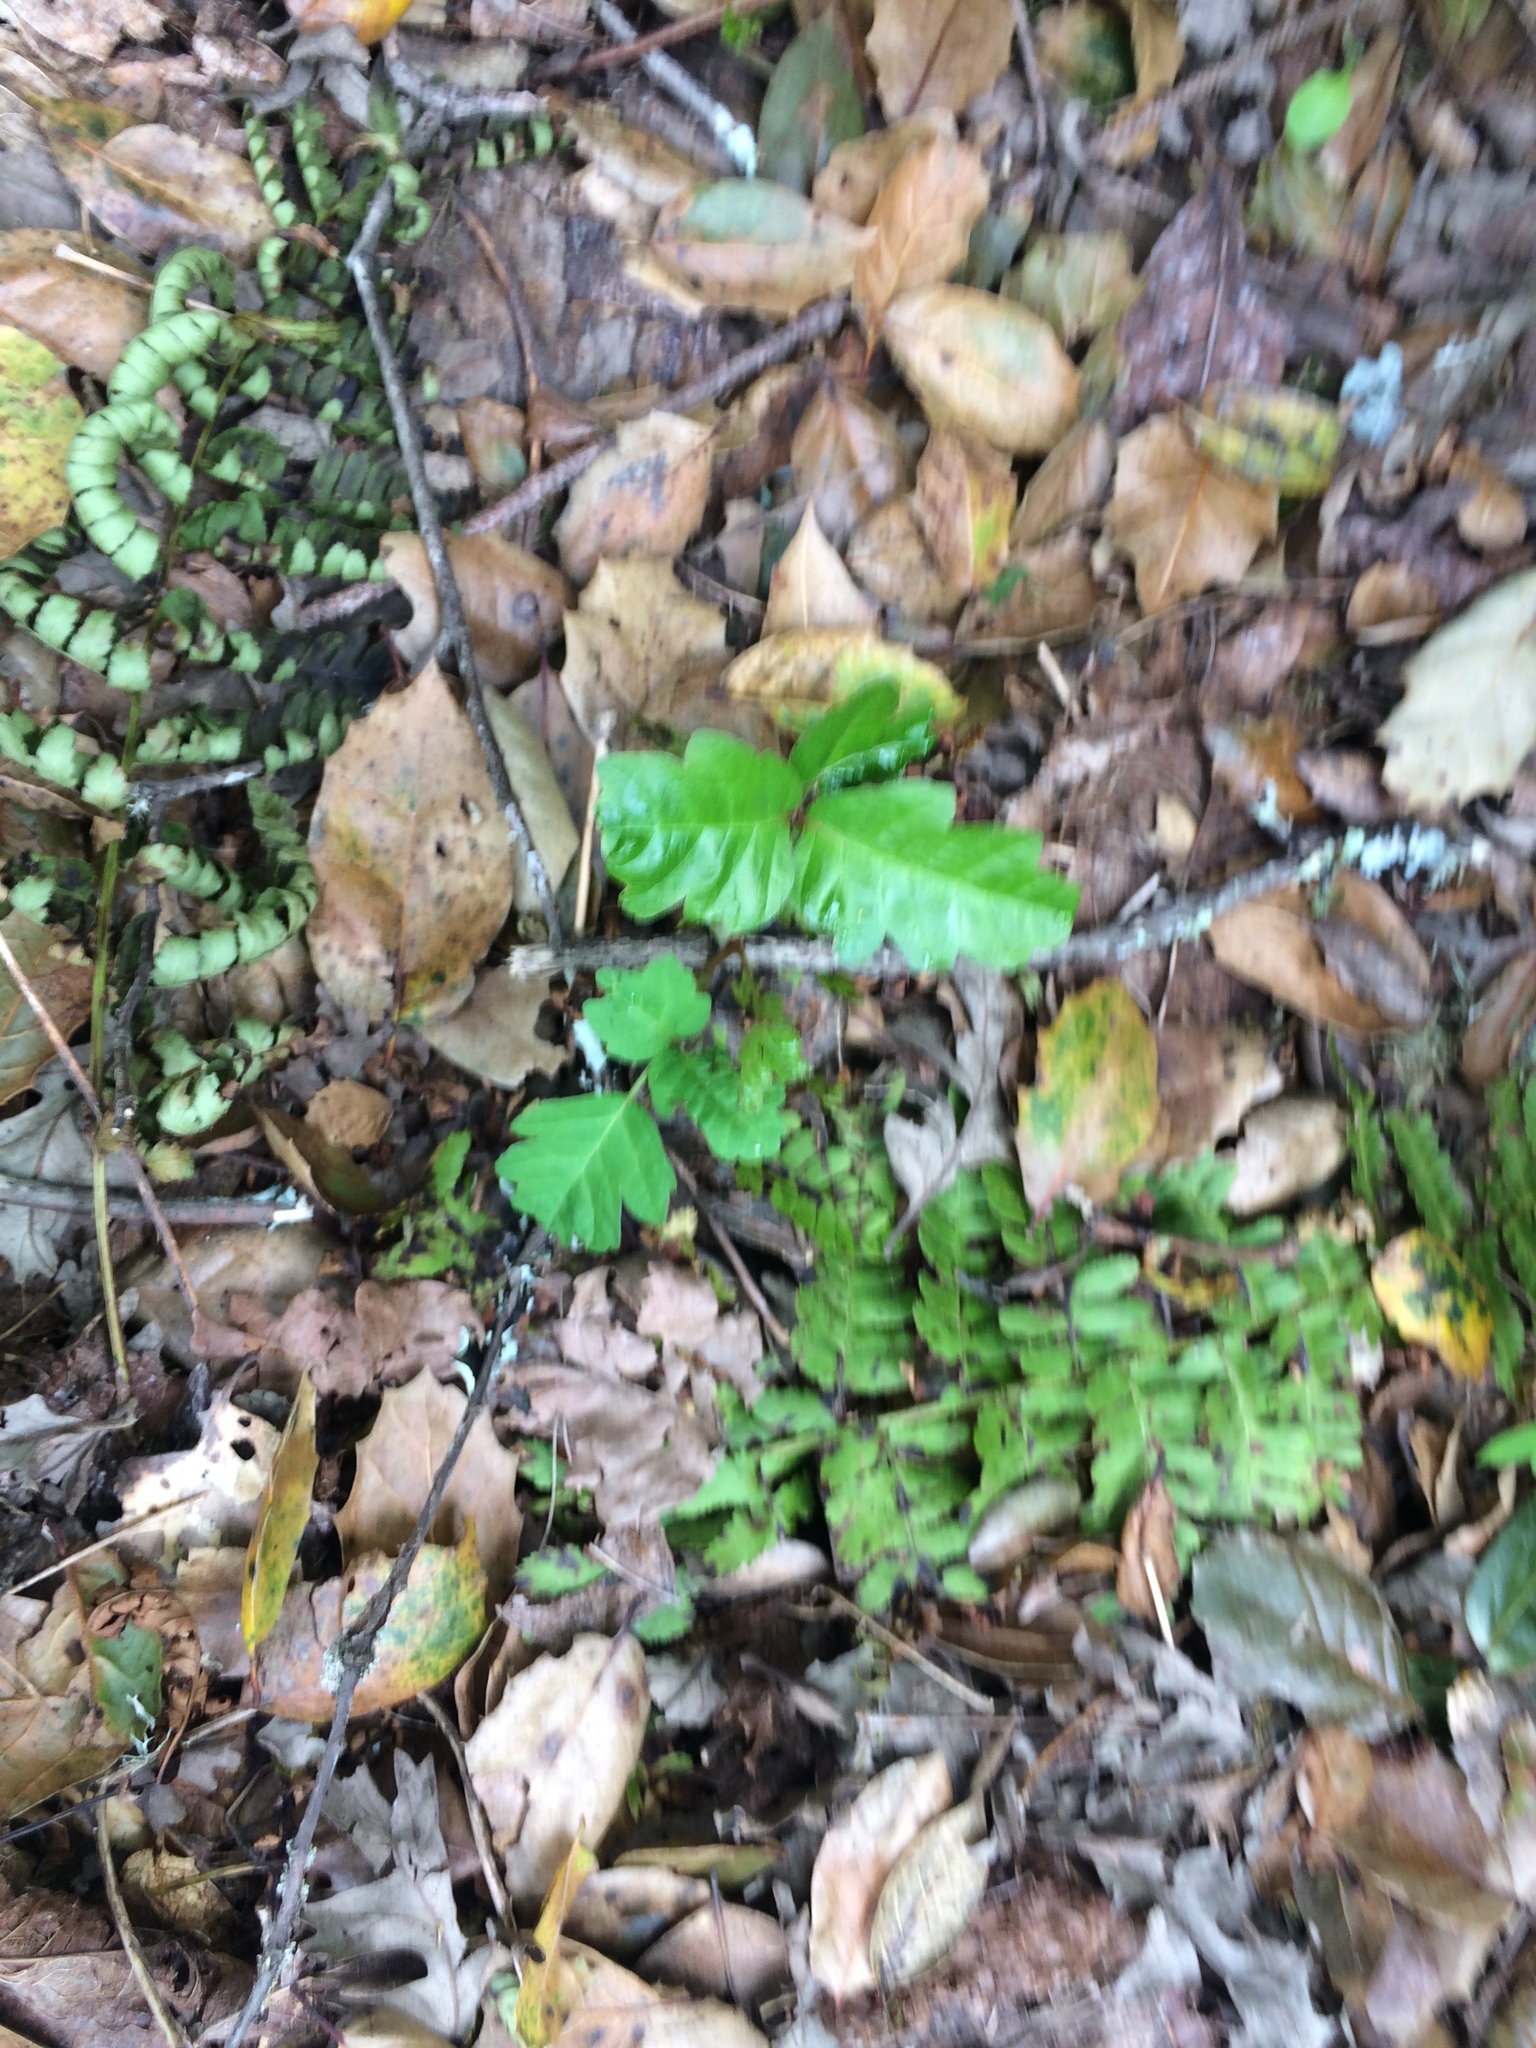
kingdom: Plantae
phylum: Tracheophyta
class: Magnoliopsida
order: Sapindales
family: Anacardiaceae
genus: Toxicodendron
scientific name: Toxicodendron diversilobum
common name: Pacific poison-oak
